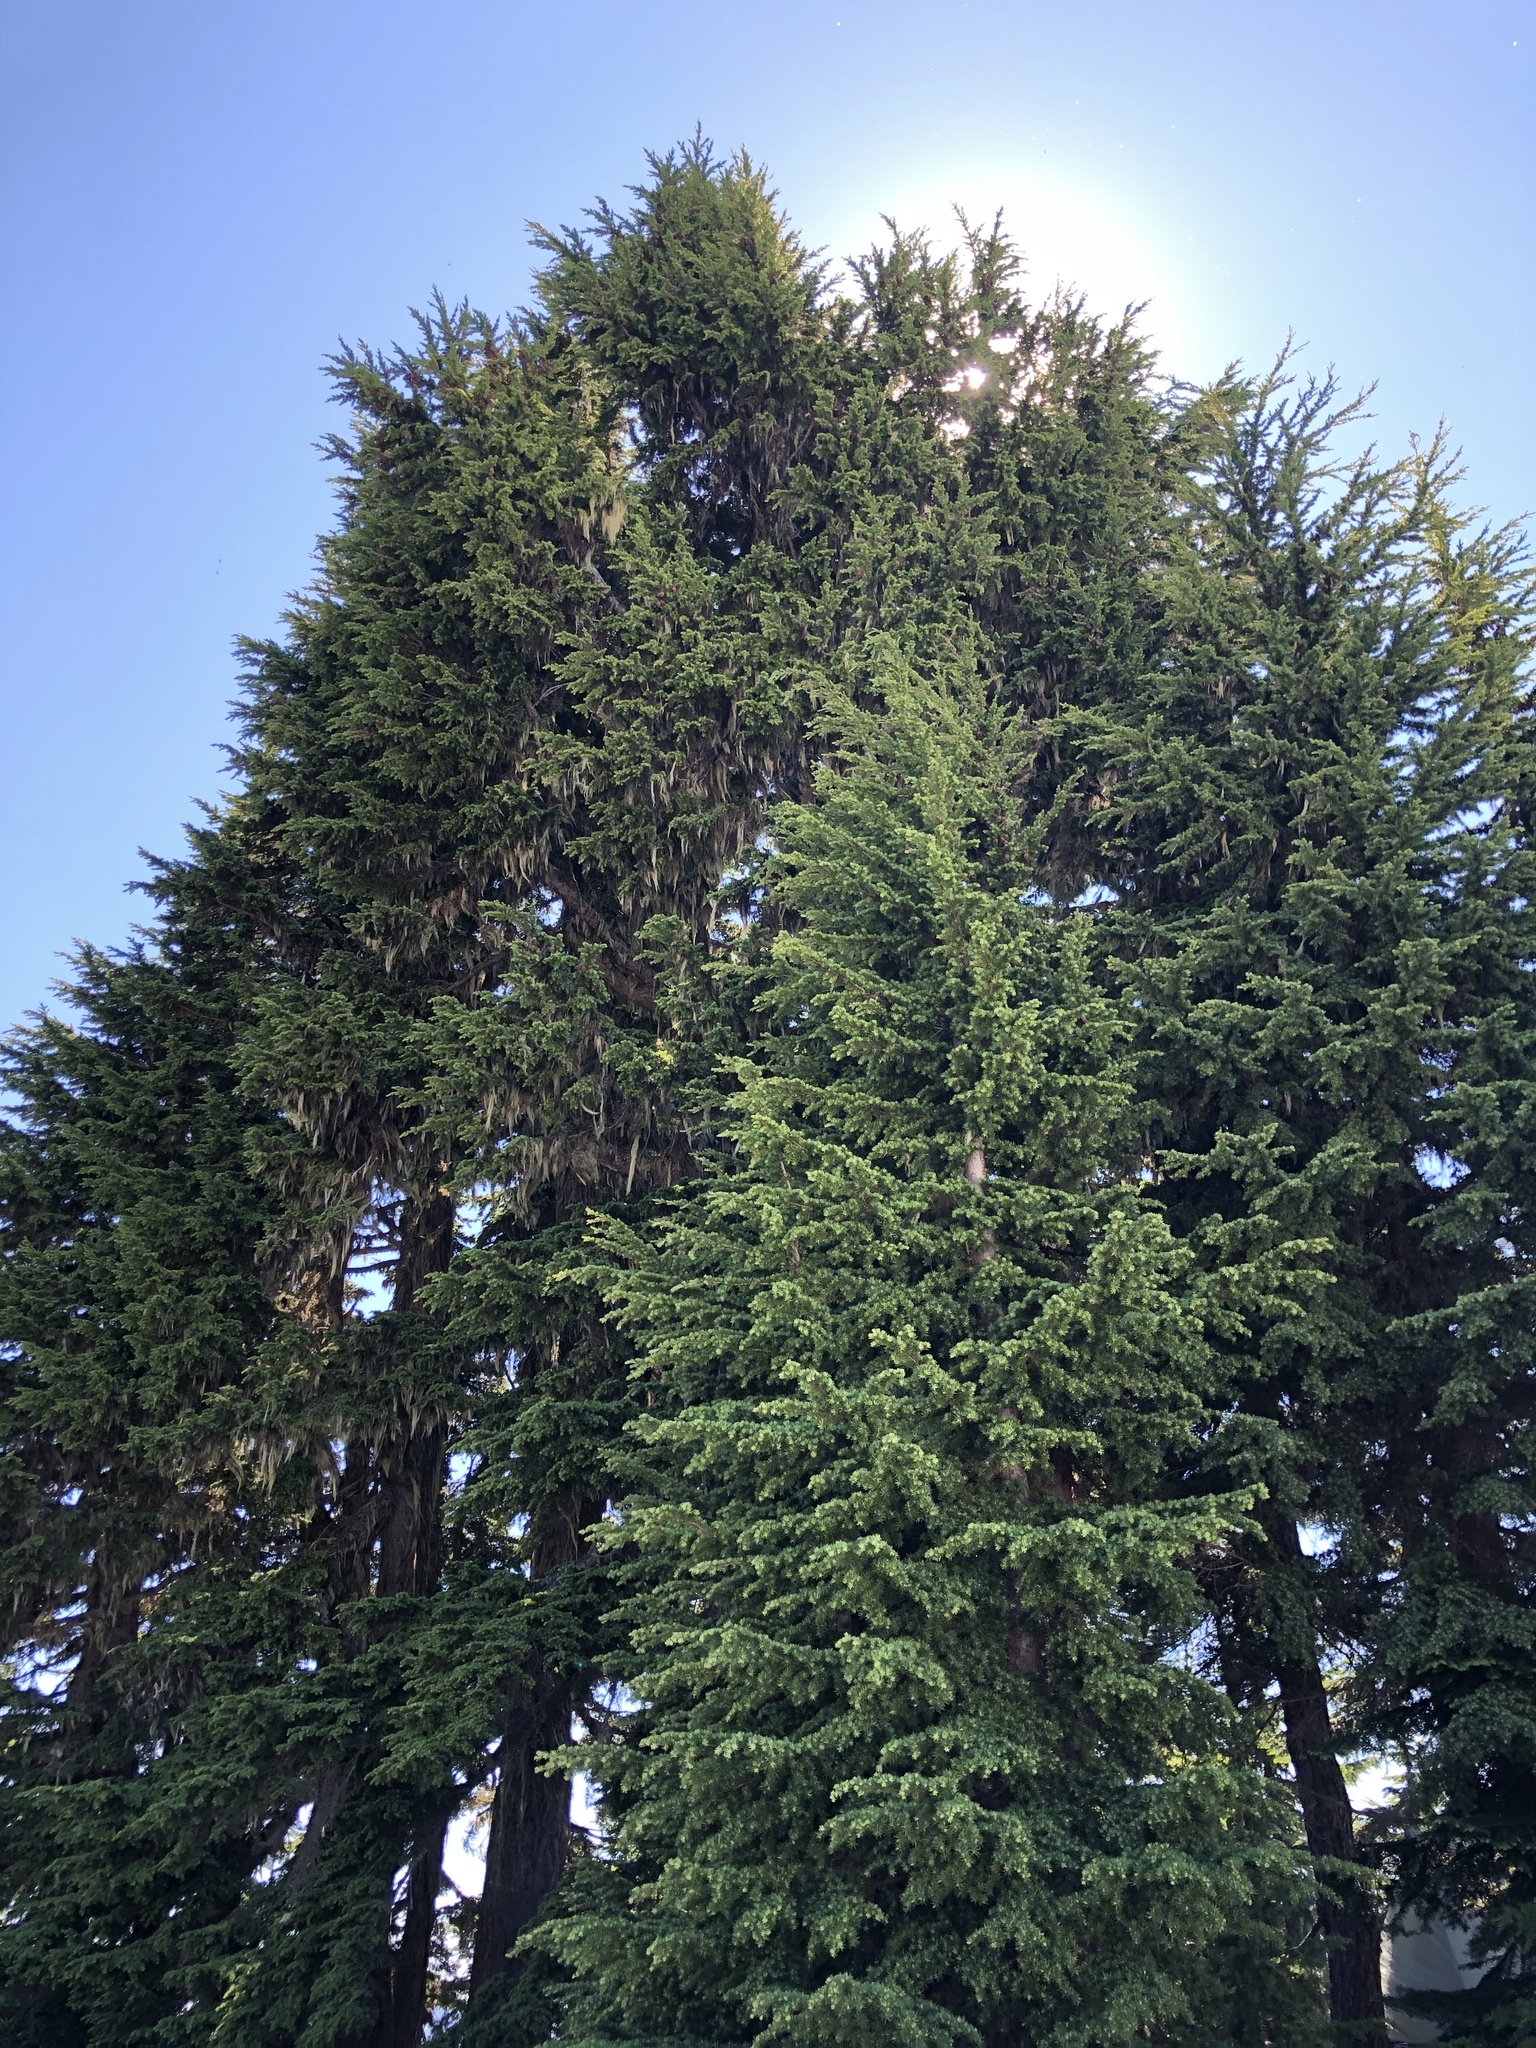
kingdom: Plantae
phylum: Tracheophyta
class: Pinopsida
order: Pinales
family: Pinaceae
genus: Tsuga
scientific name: Tsuga mertensiana
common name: Mountain hemlock
